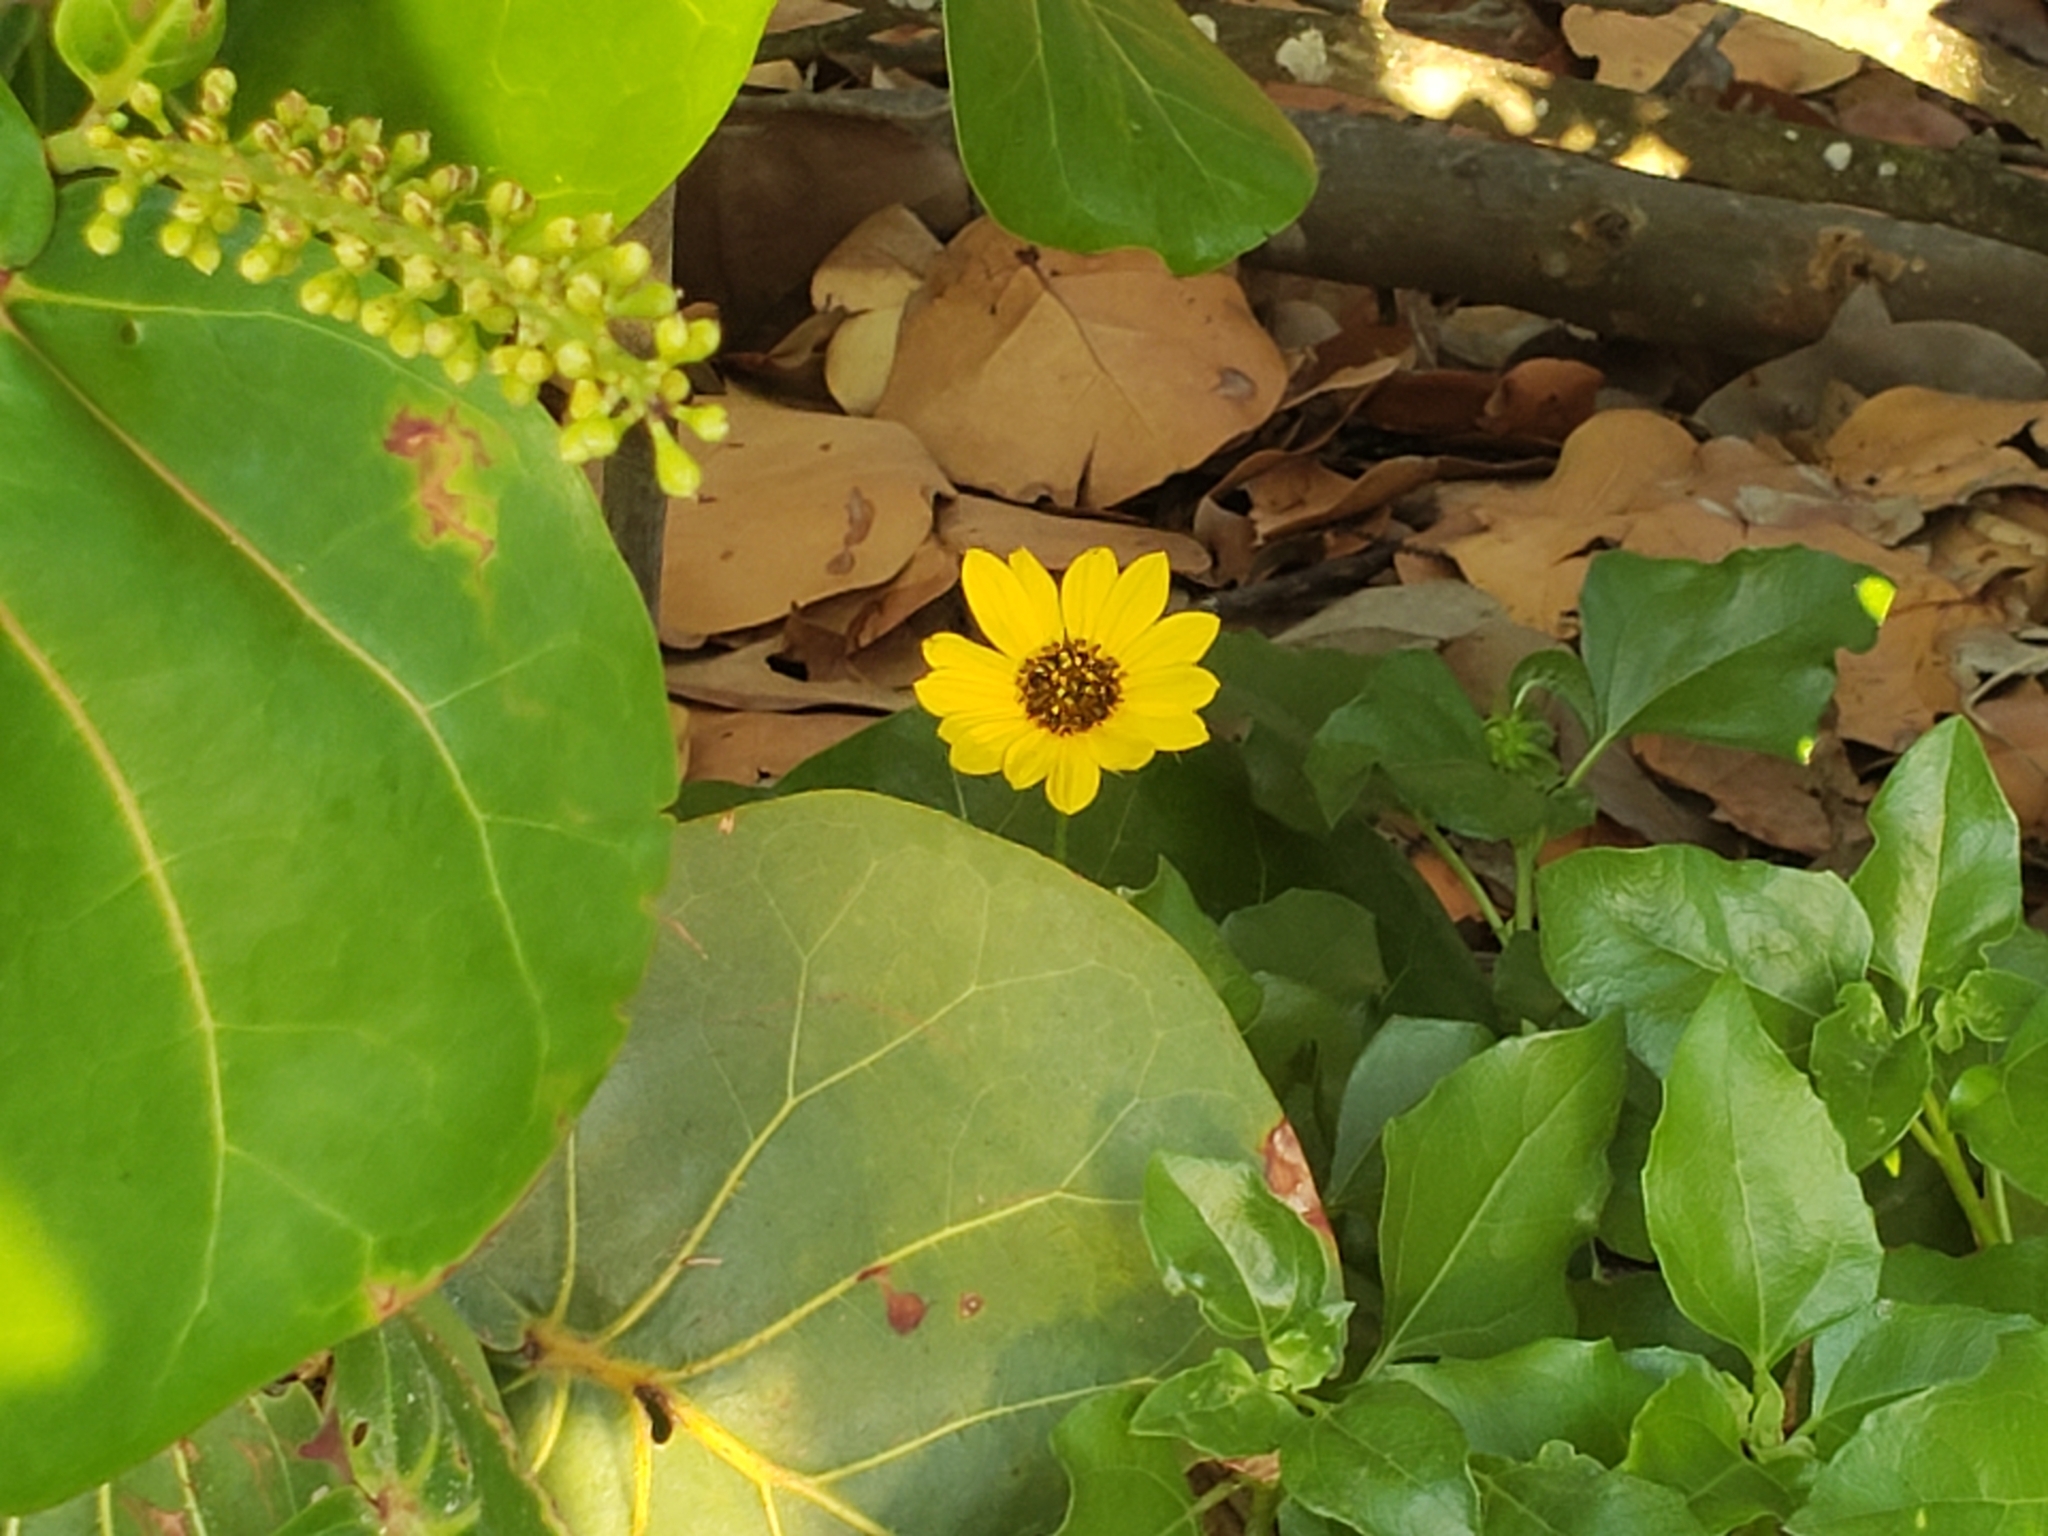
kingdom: Plantae
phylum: Tracheophyta
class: Magnoliopsida
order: Asterales
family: Asteraceae
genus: Helianthus
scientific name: Helianthus debilis
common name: Weak sunflower
